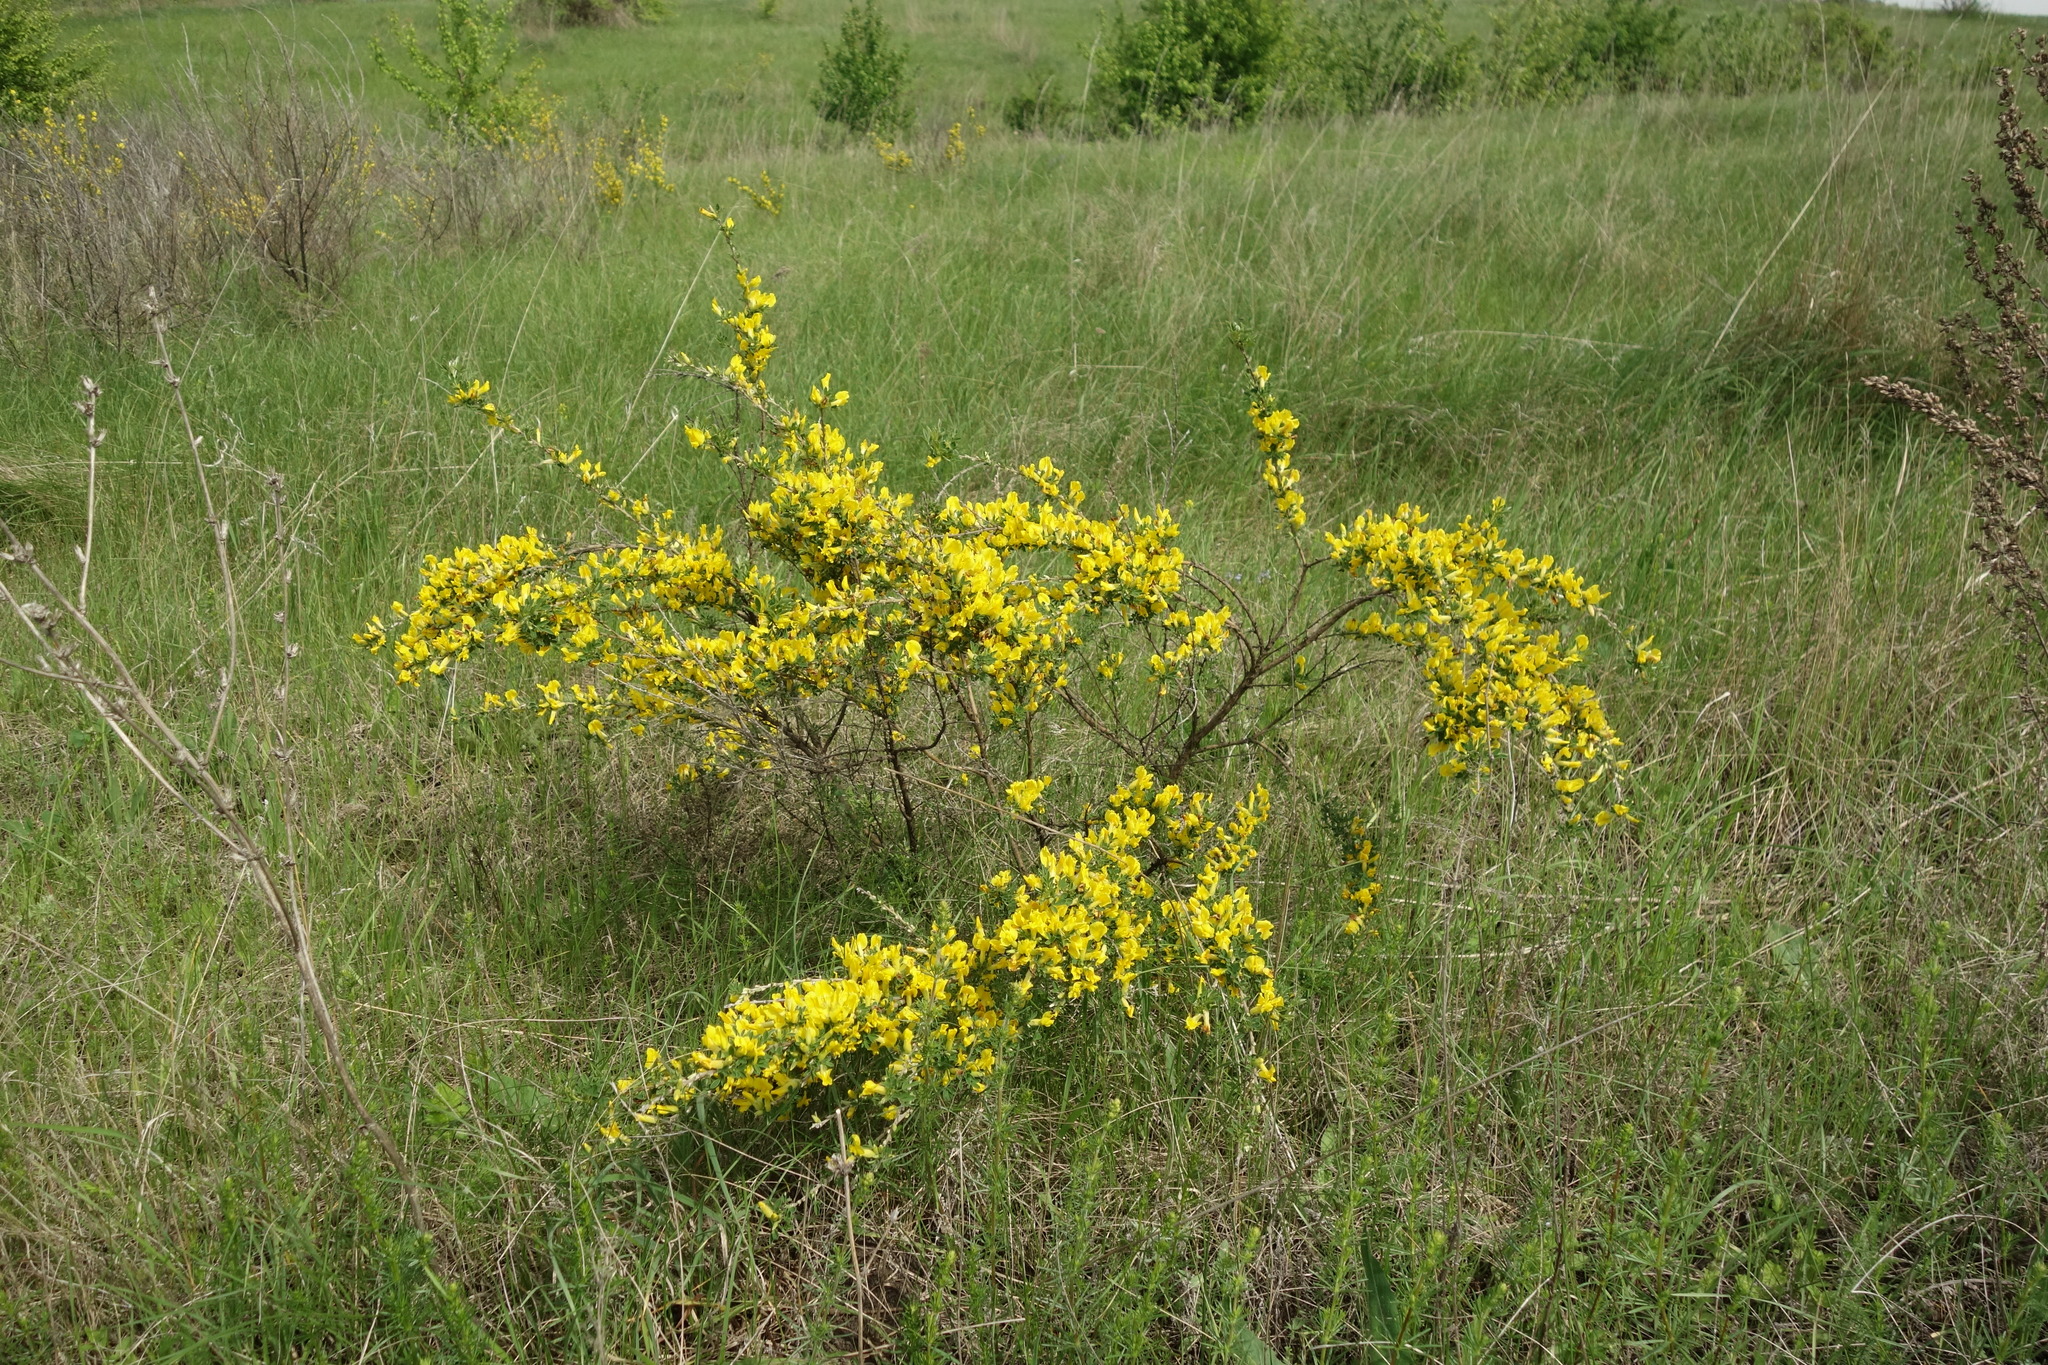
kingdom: Plantae
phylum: Tracheophyta
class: Magnoliopsida
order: Fabales
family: Fabaceae
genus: Chamaecytisus
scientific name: Chamaecytisus ruthenicus
